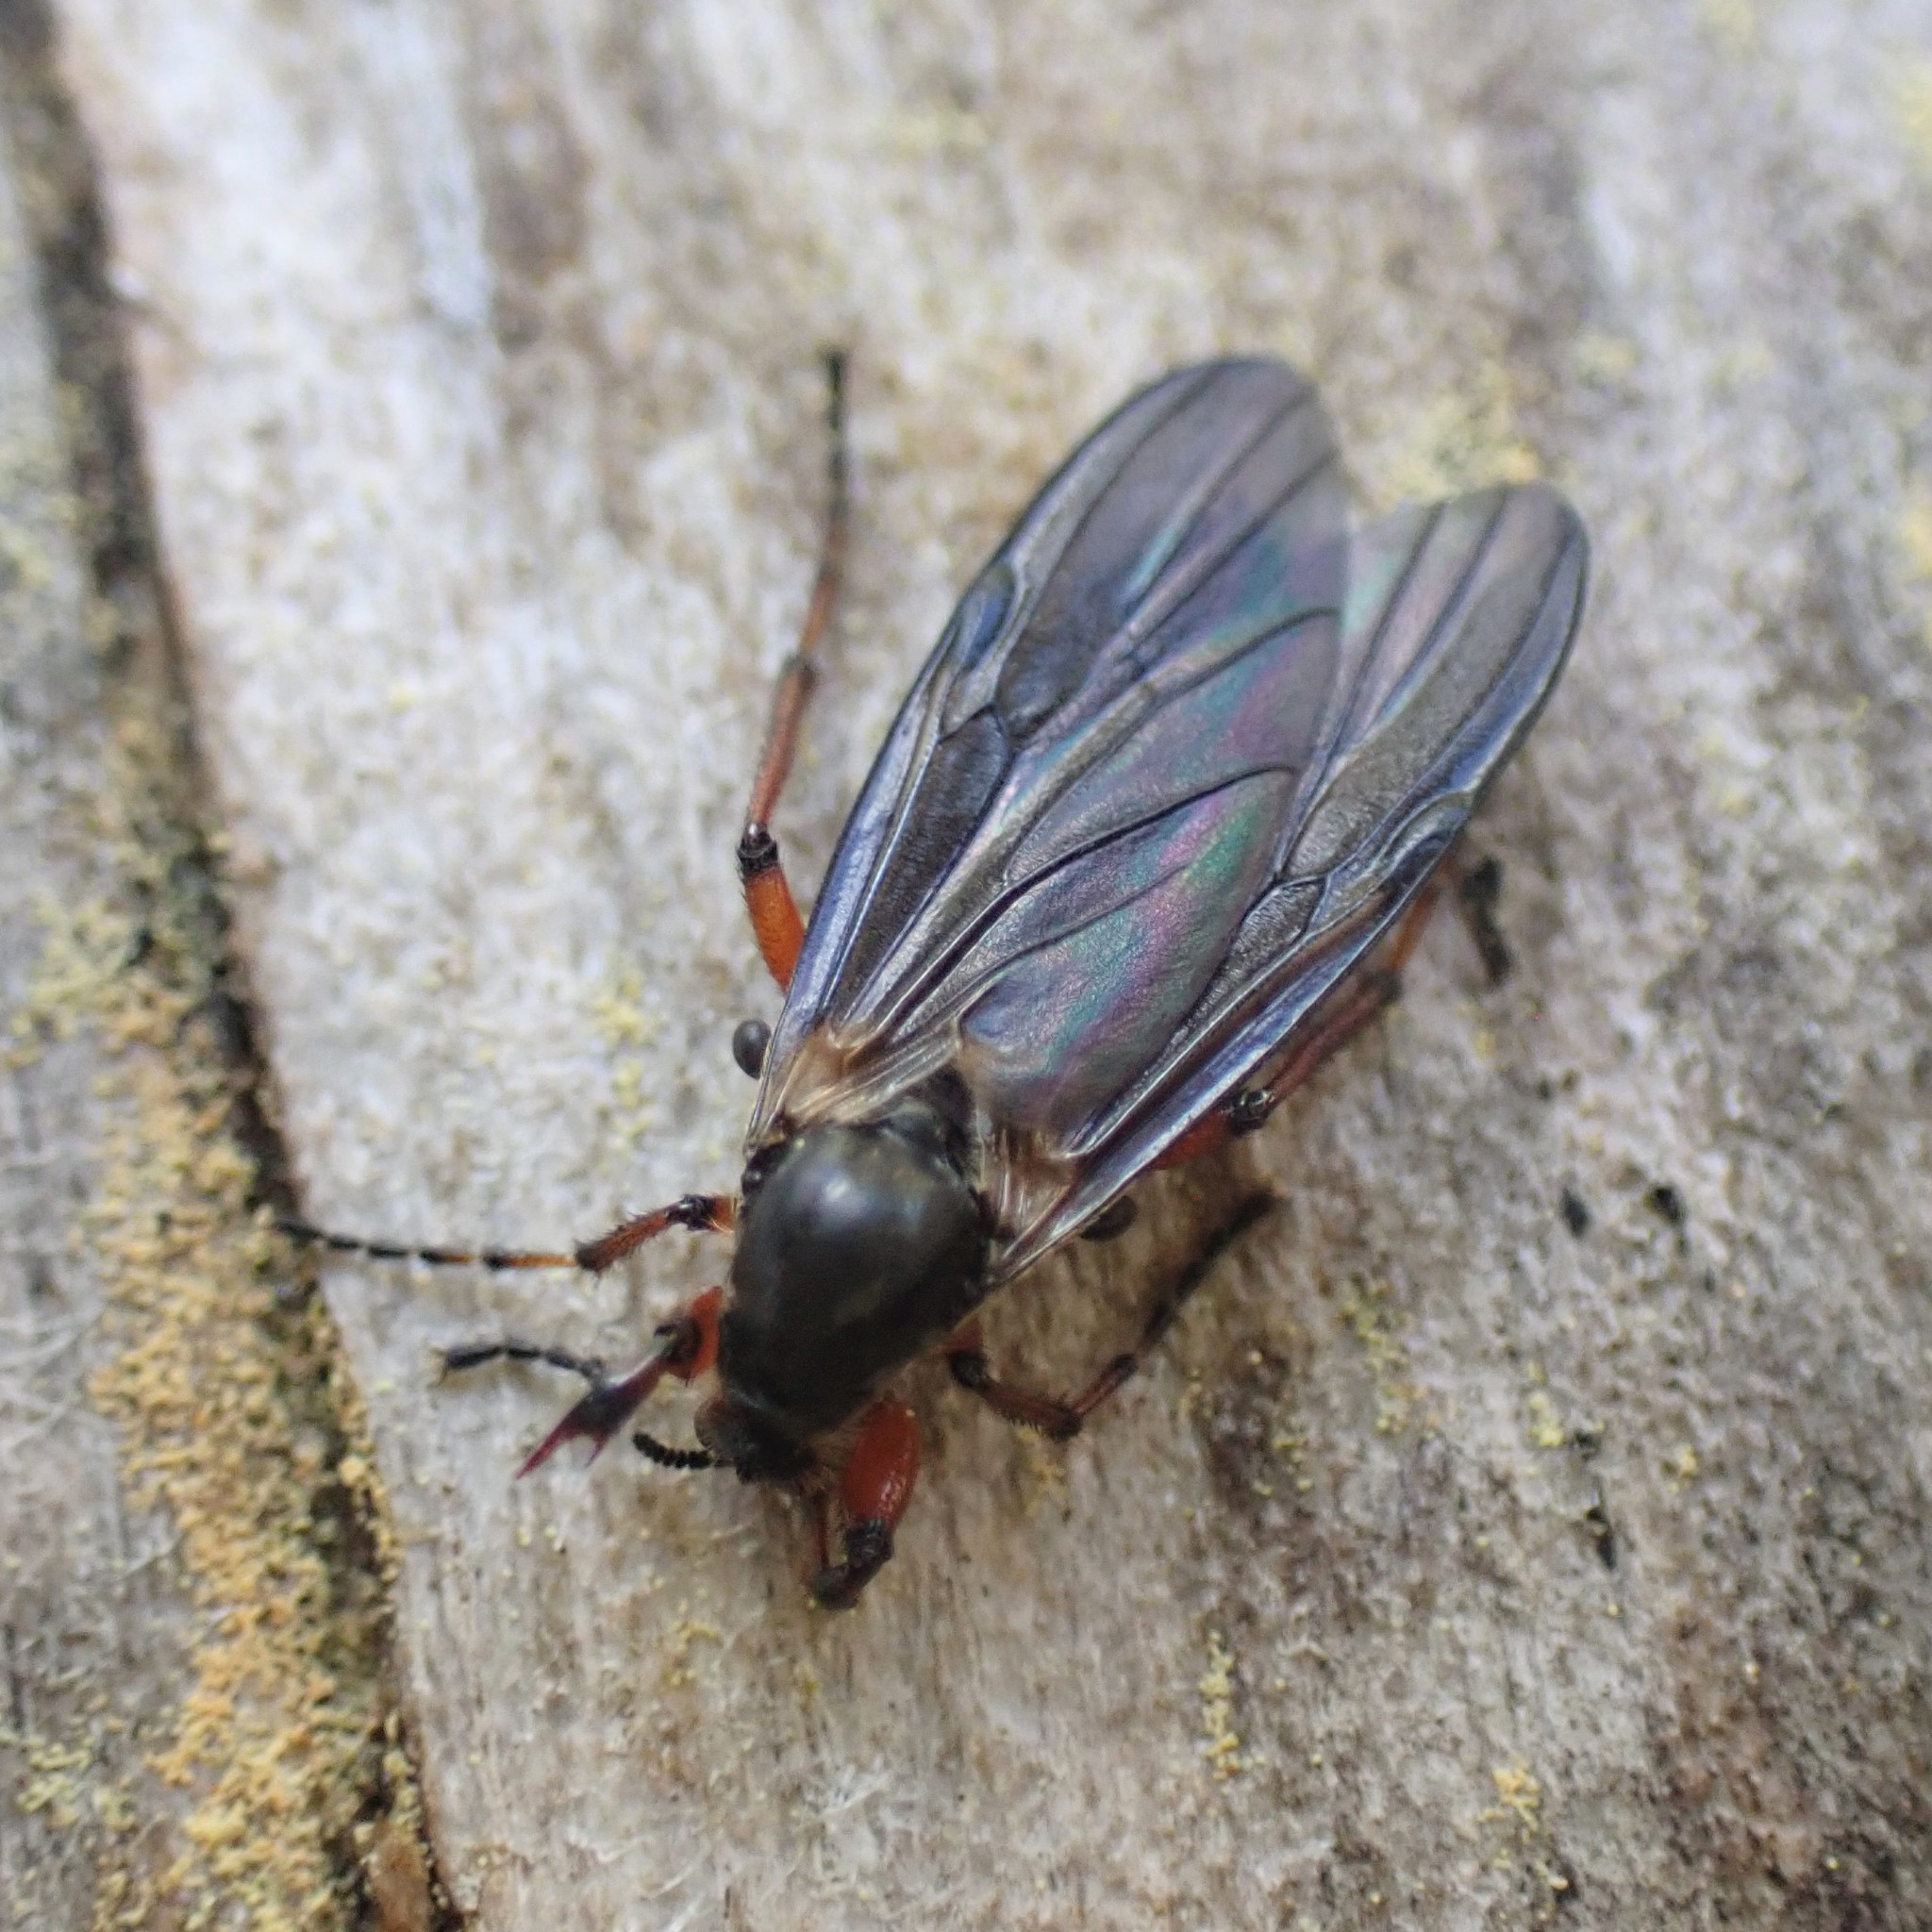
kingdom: Animalia
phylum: Arthropoda
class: Insecta
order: Diptera
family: Bibionidae
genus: Bibio
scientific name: Bibio
